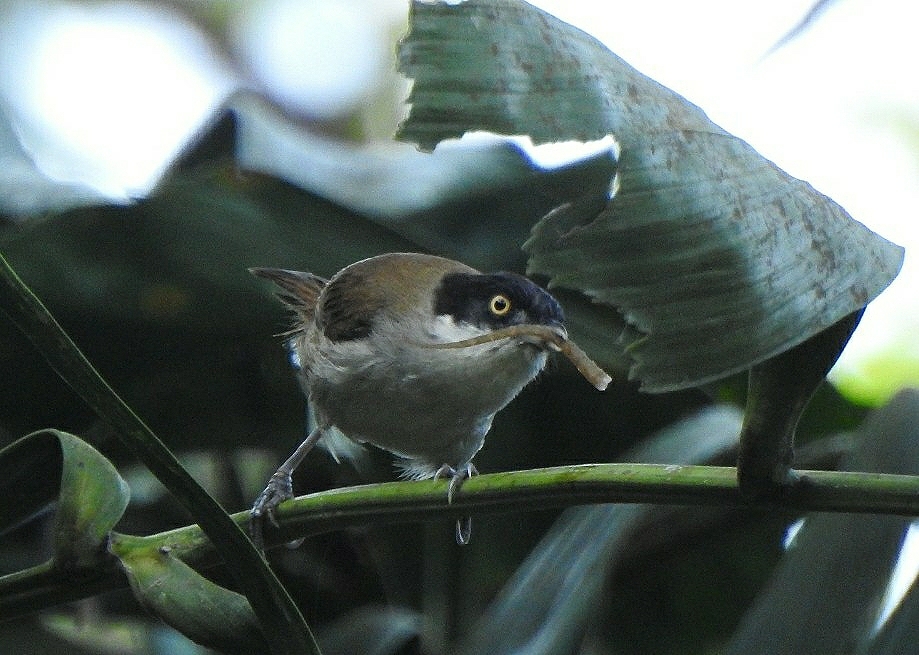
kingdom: Animalia
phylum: Chordata
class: Aves
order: Passeriformes
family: Timaliidae
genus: Rhopocichla
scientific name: Rhopocichla atriceps
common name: Dark-fronted babbler
